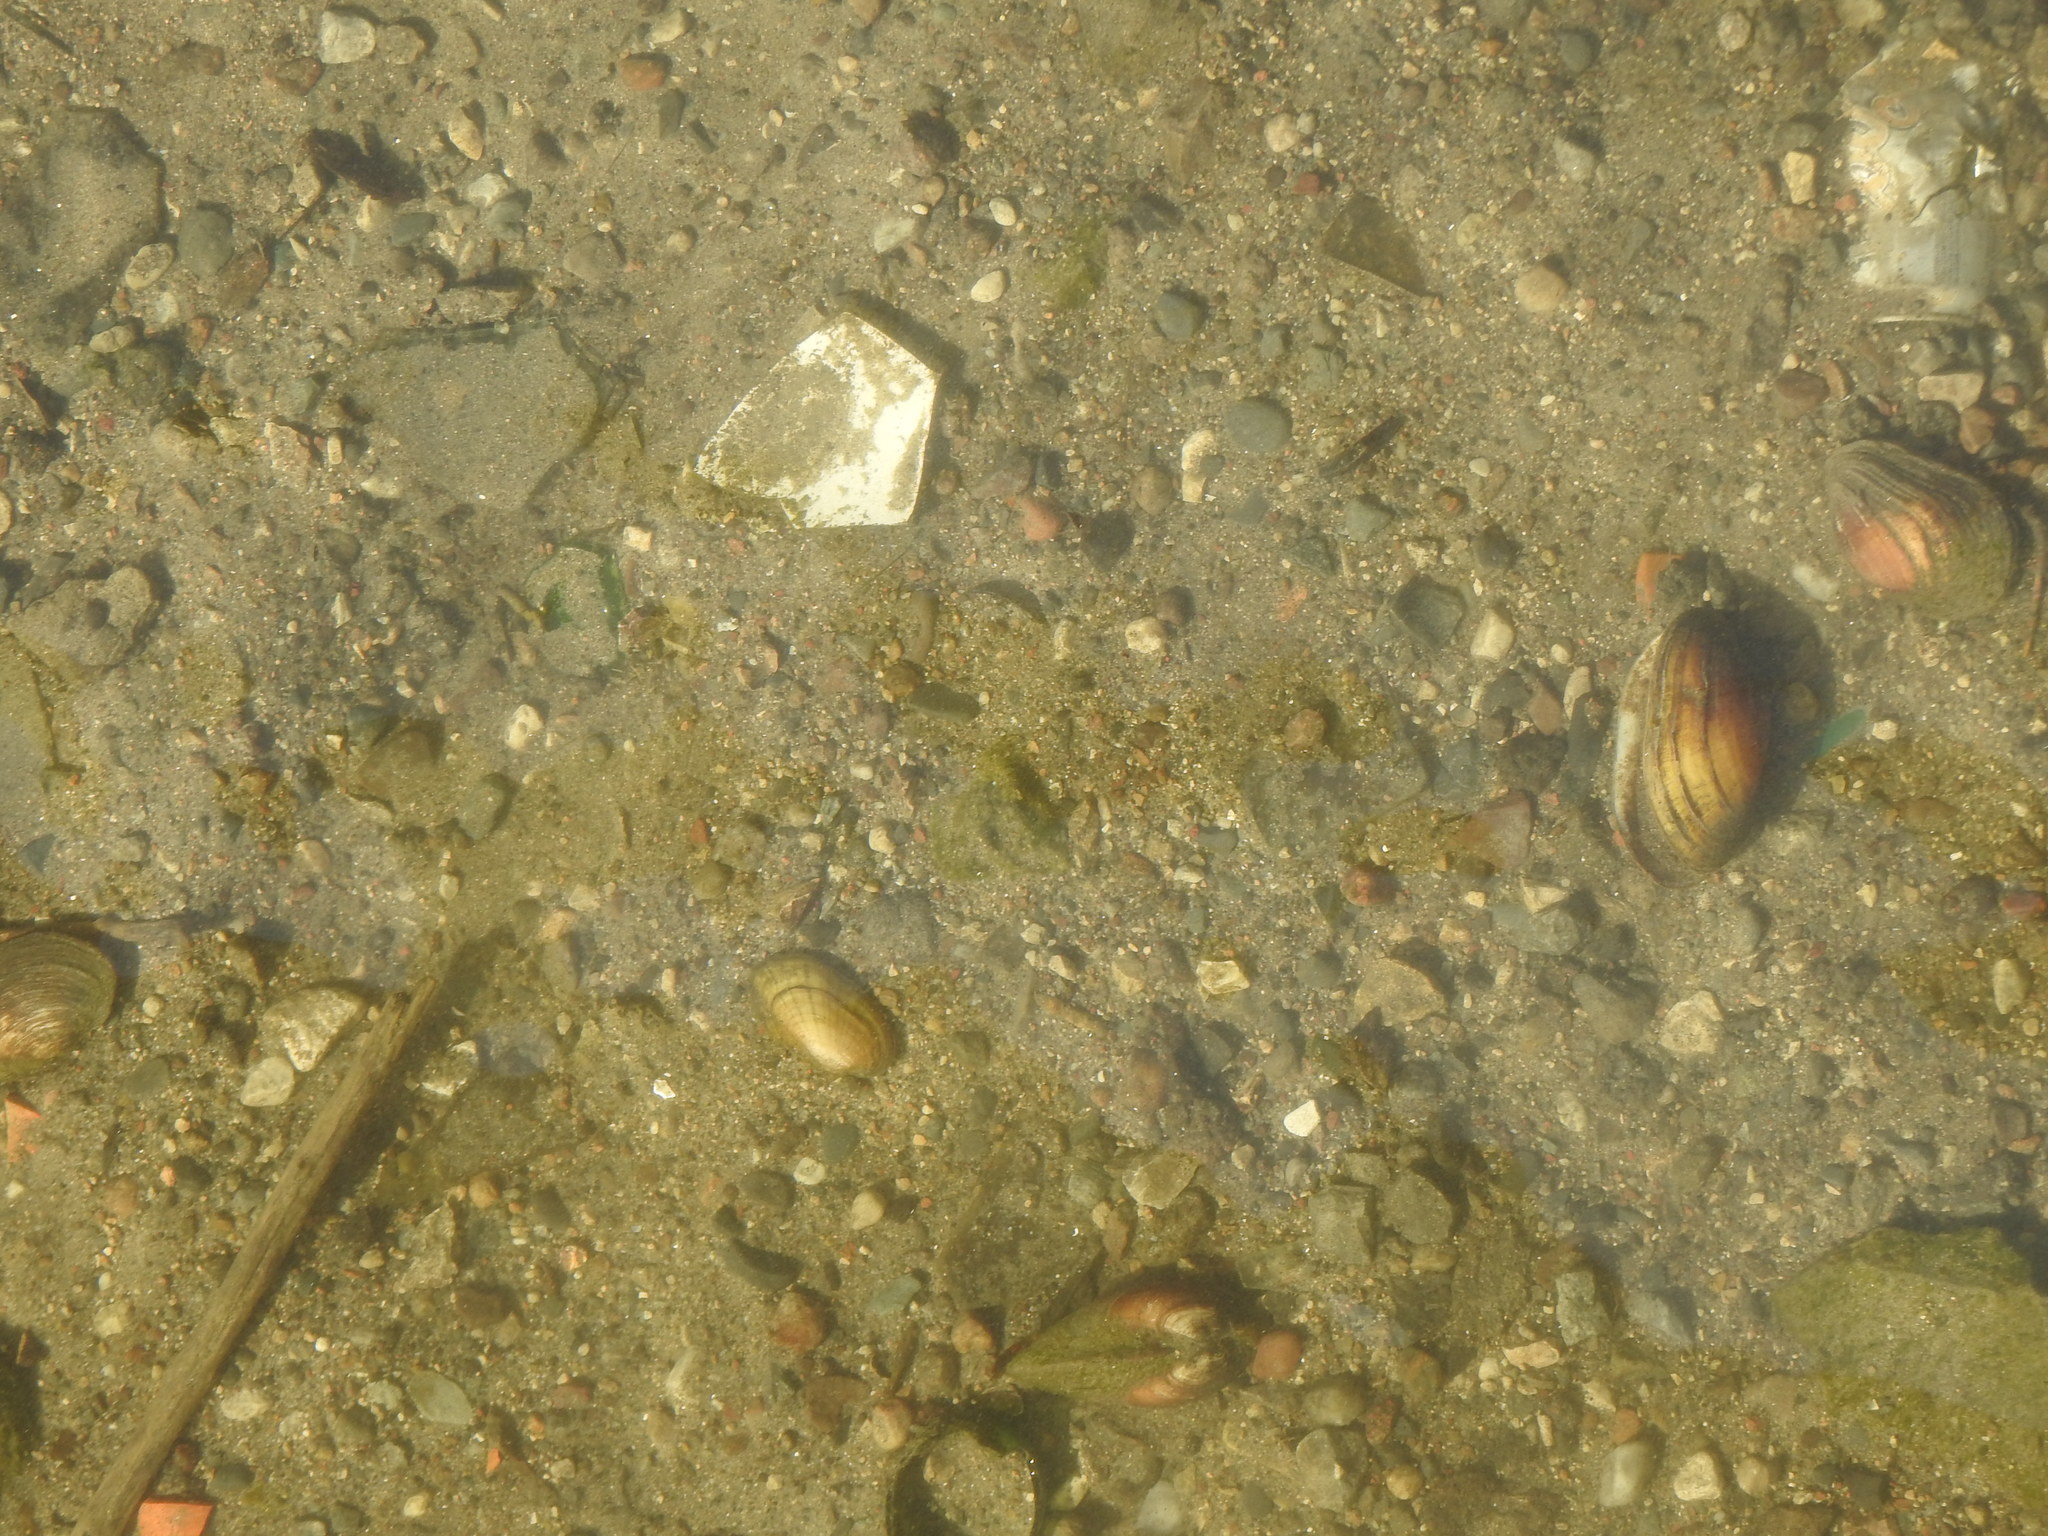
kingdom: Animalia
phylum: Mollusca
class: Bivalvia
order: Unionida
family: Unionidae
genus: Lampsilis
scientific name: Lampsilis siliquoidea
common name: Fatmucket
